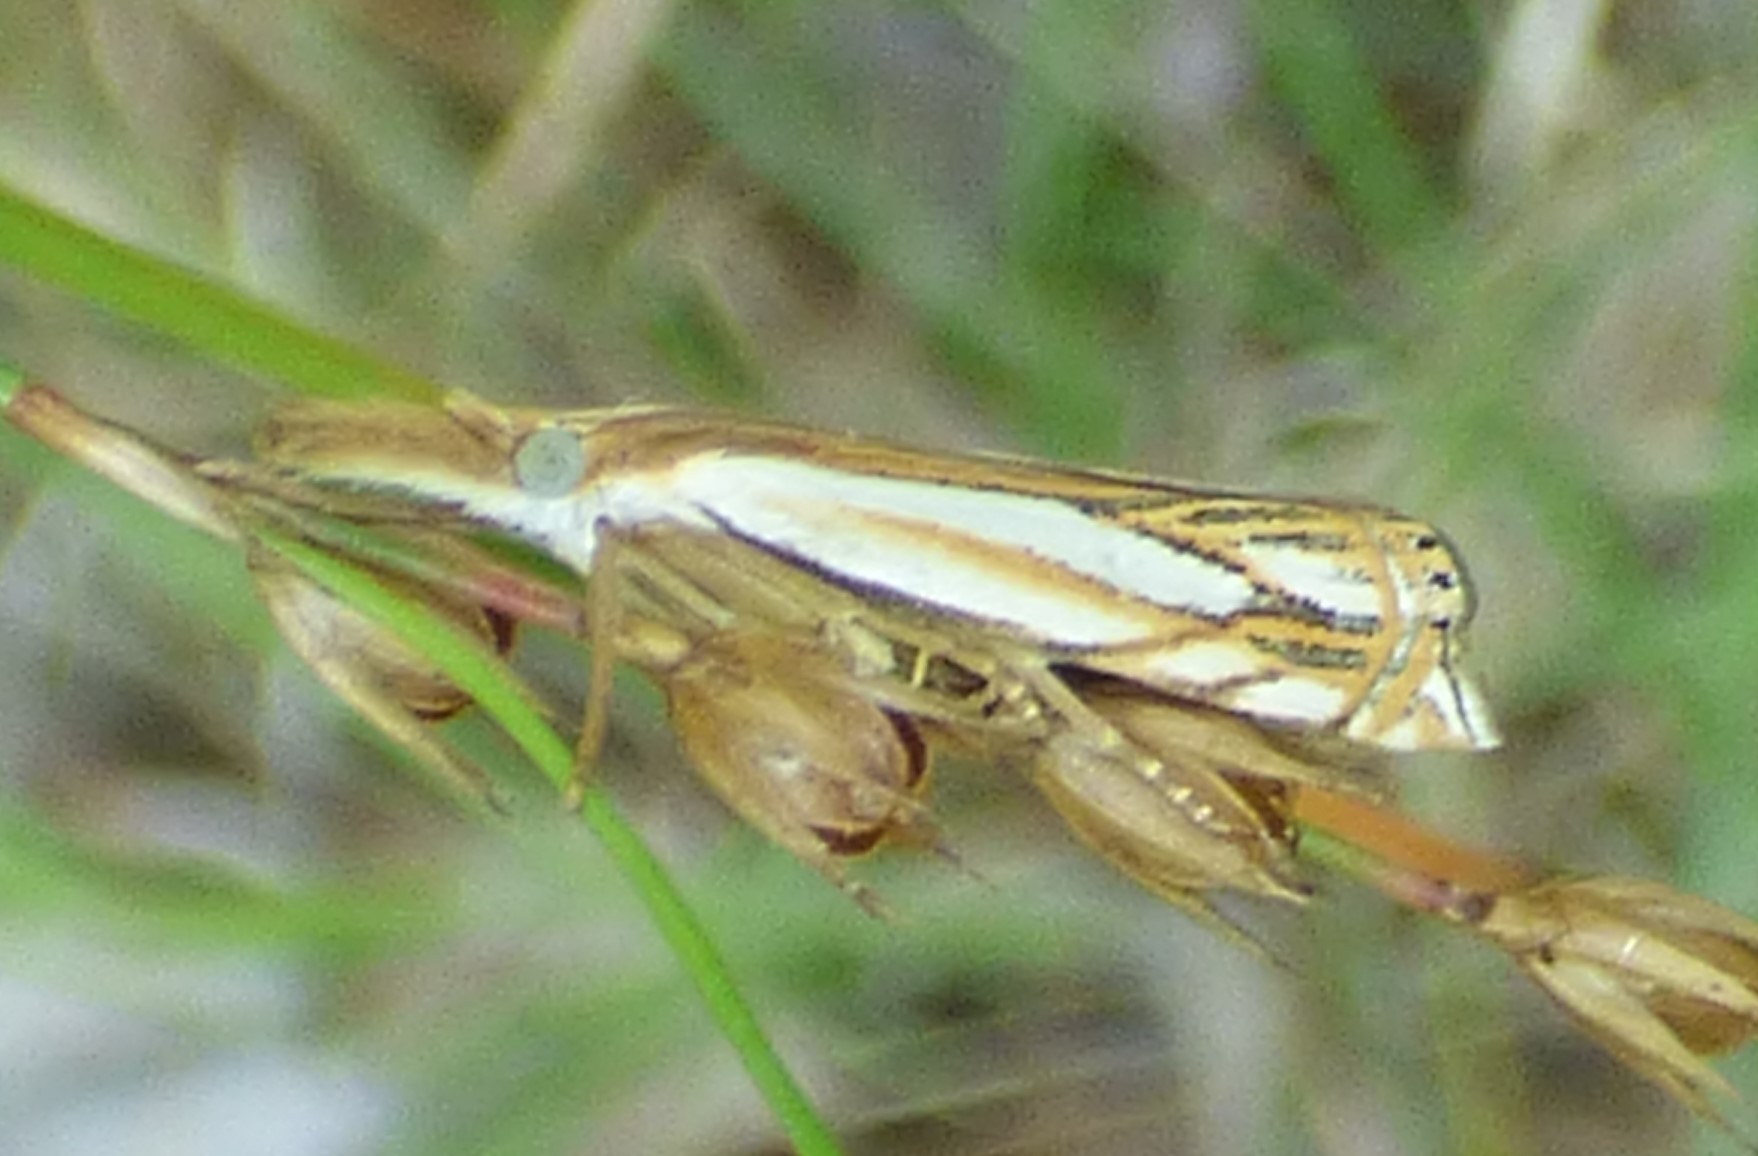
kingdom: Animalia
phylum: Arthropoda
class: Insecta
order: Lepidoptera
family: Crambidae
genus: Crambus
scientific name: Crambus saltuellus
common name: Pasture grass-veneer
